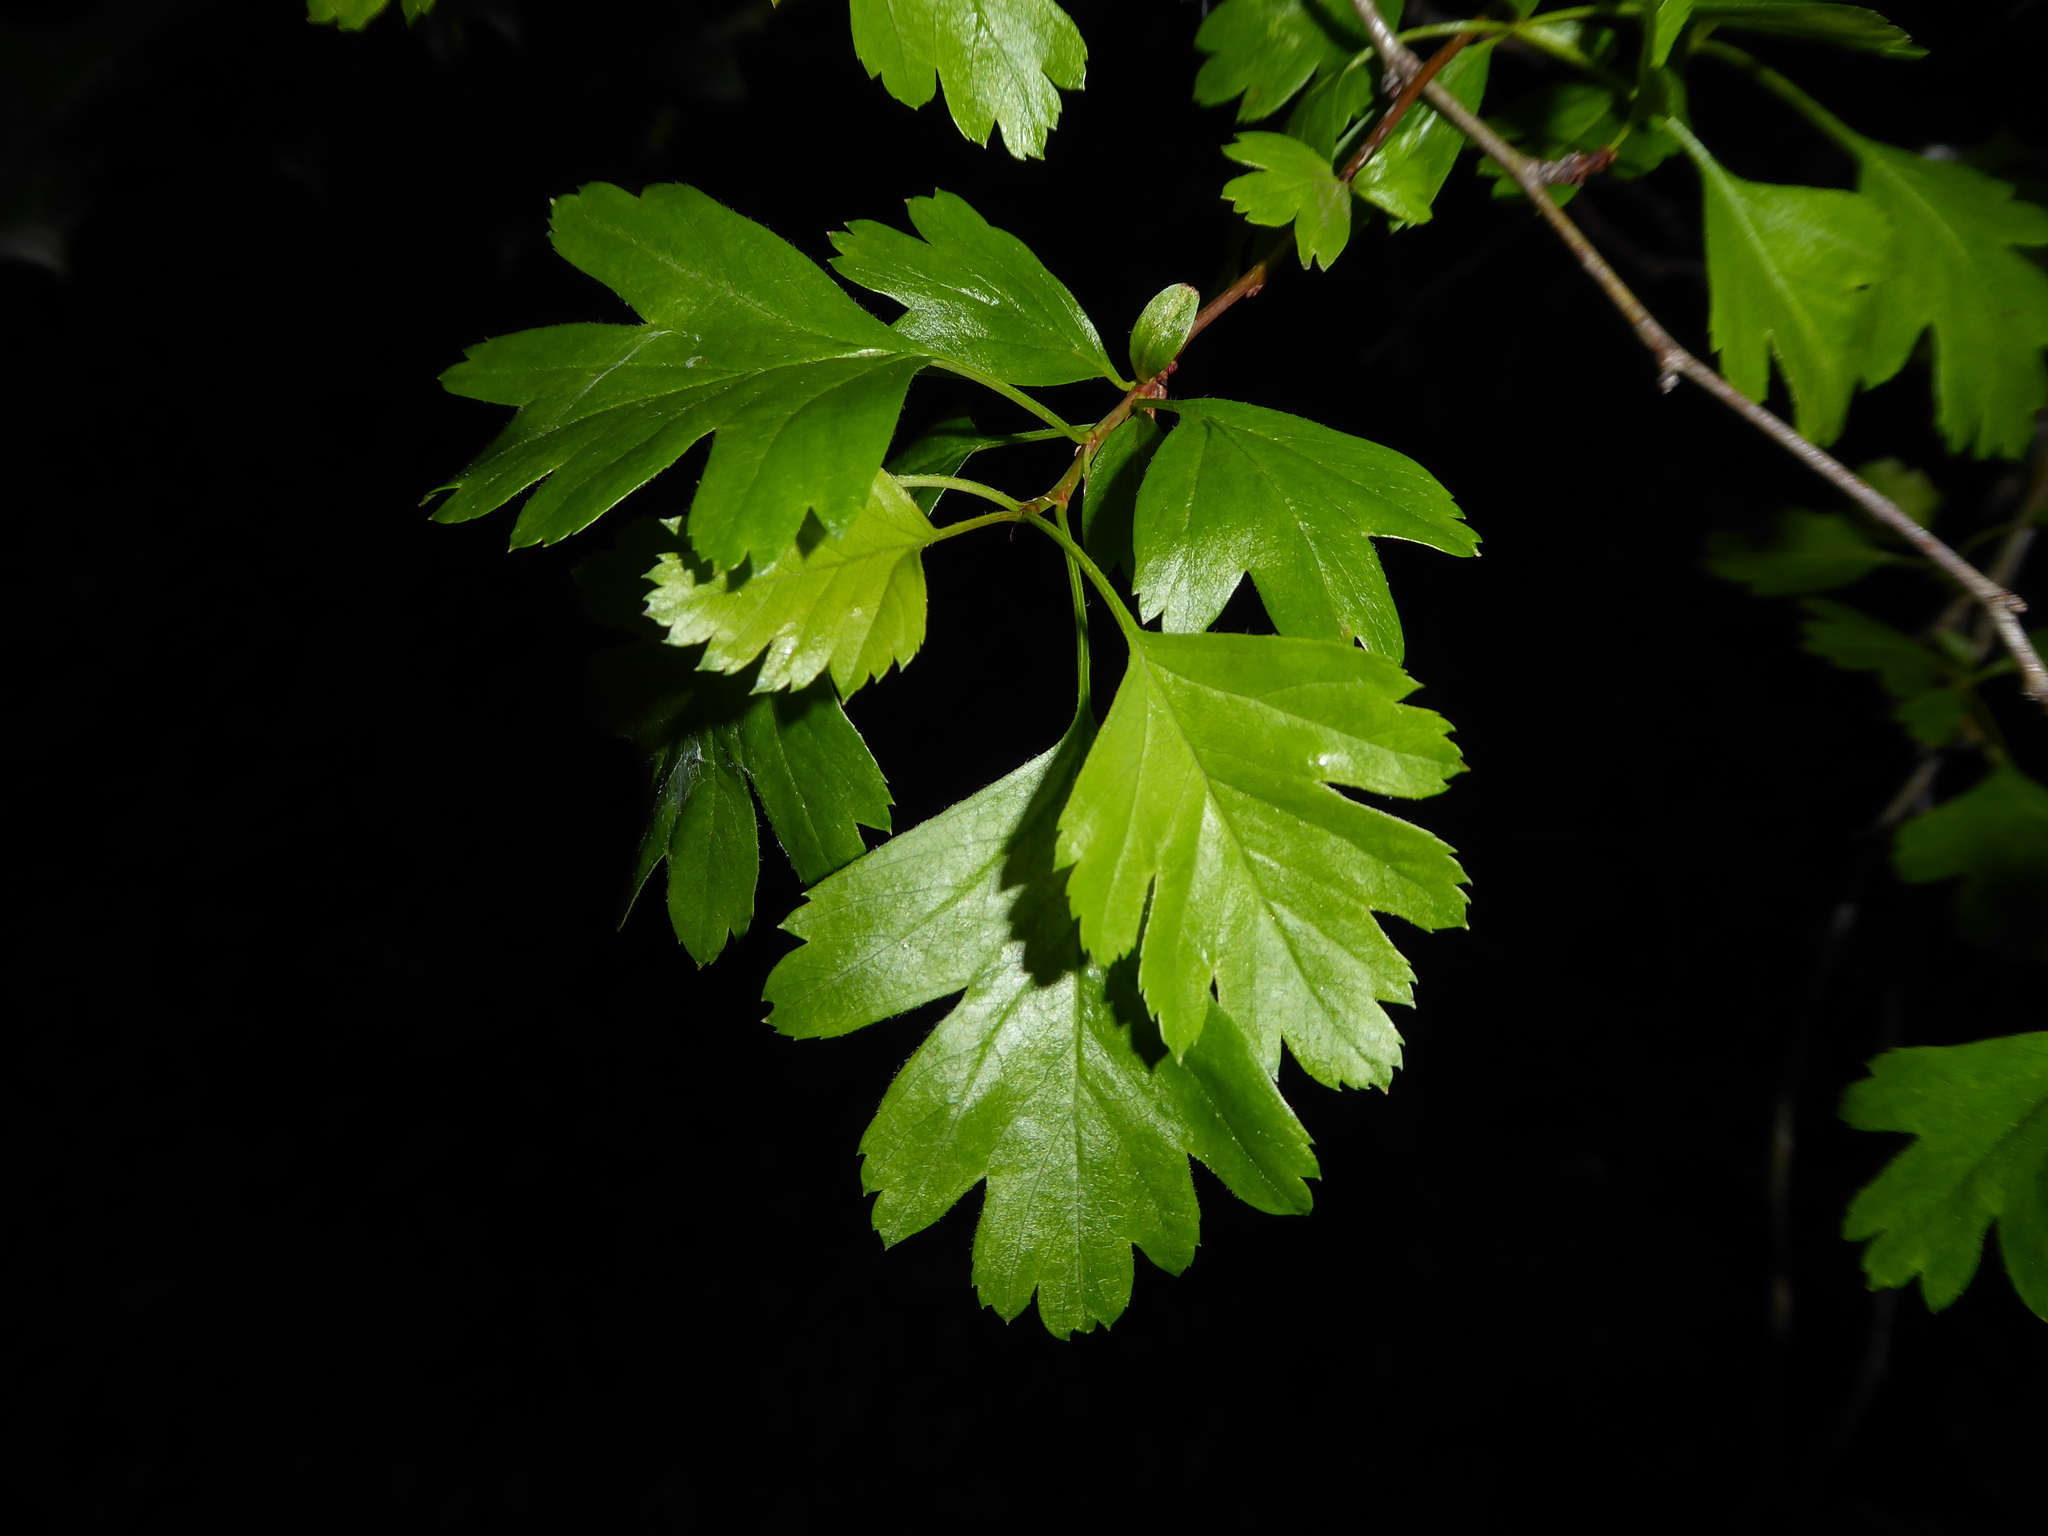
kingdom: Plantae
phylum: Tracheophyta
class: Magnoliopsida
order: Rosales
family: Rosaceae
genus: Crataegus
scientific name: Crataegus monogyna
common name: Hawthorn
